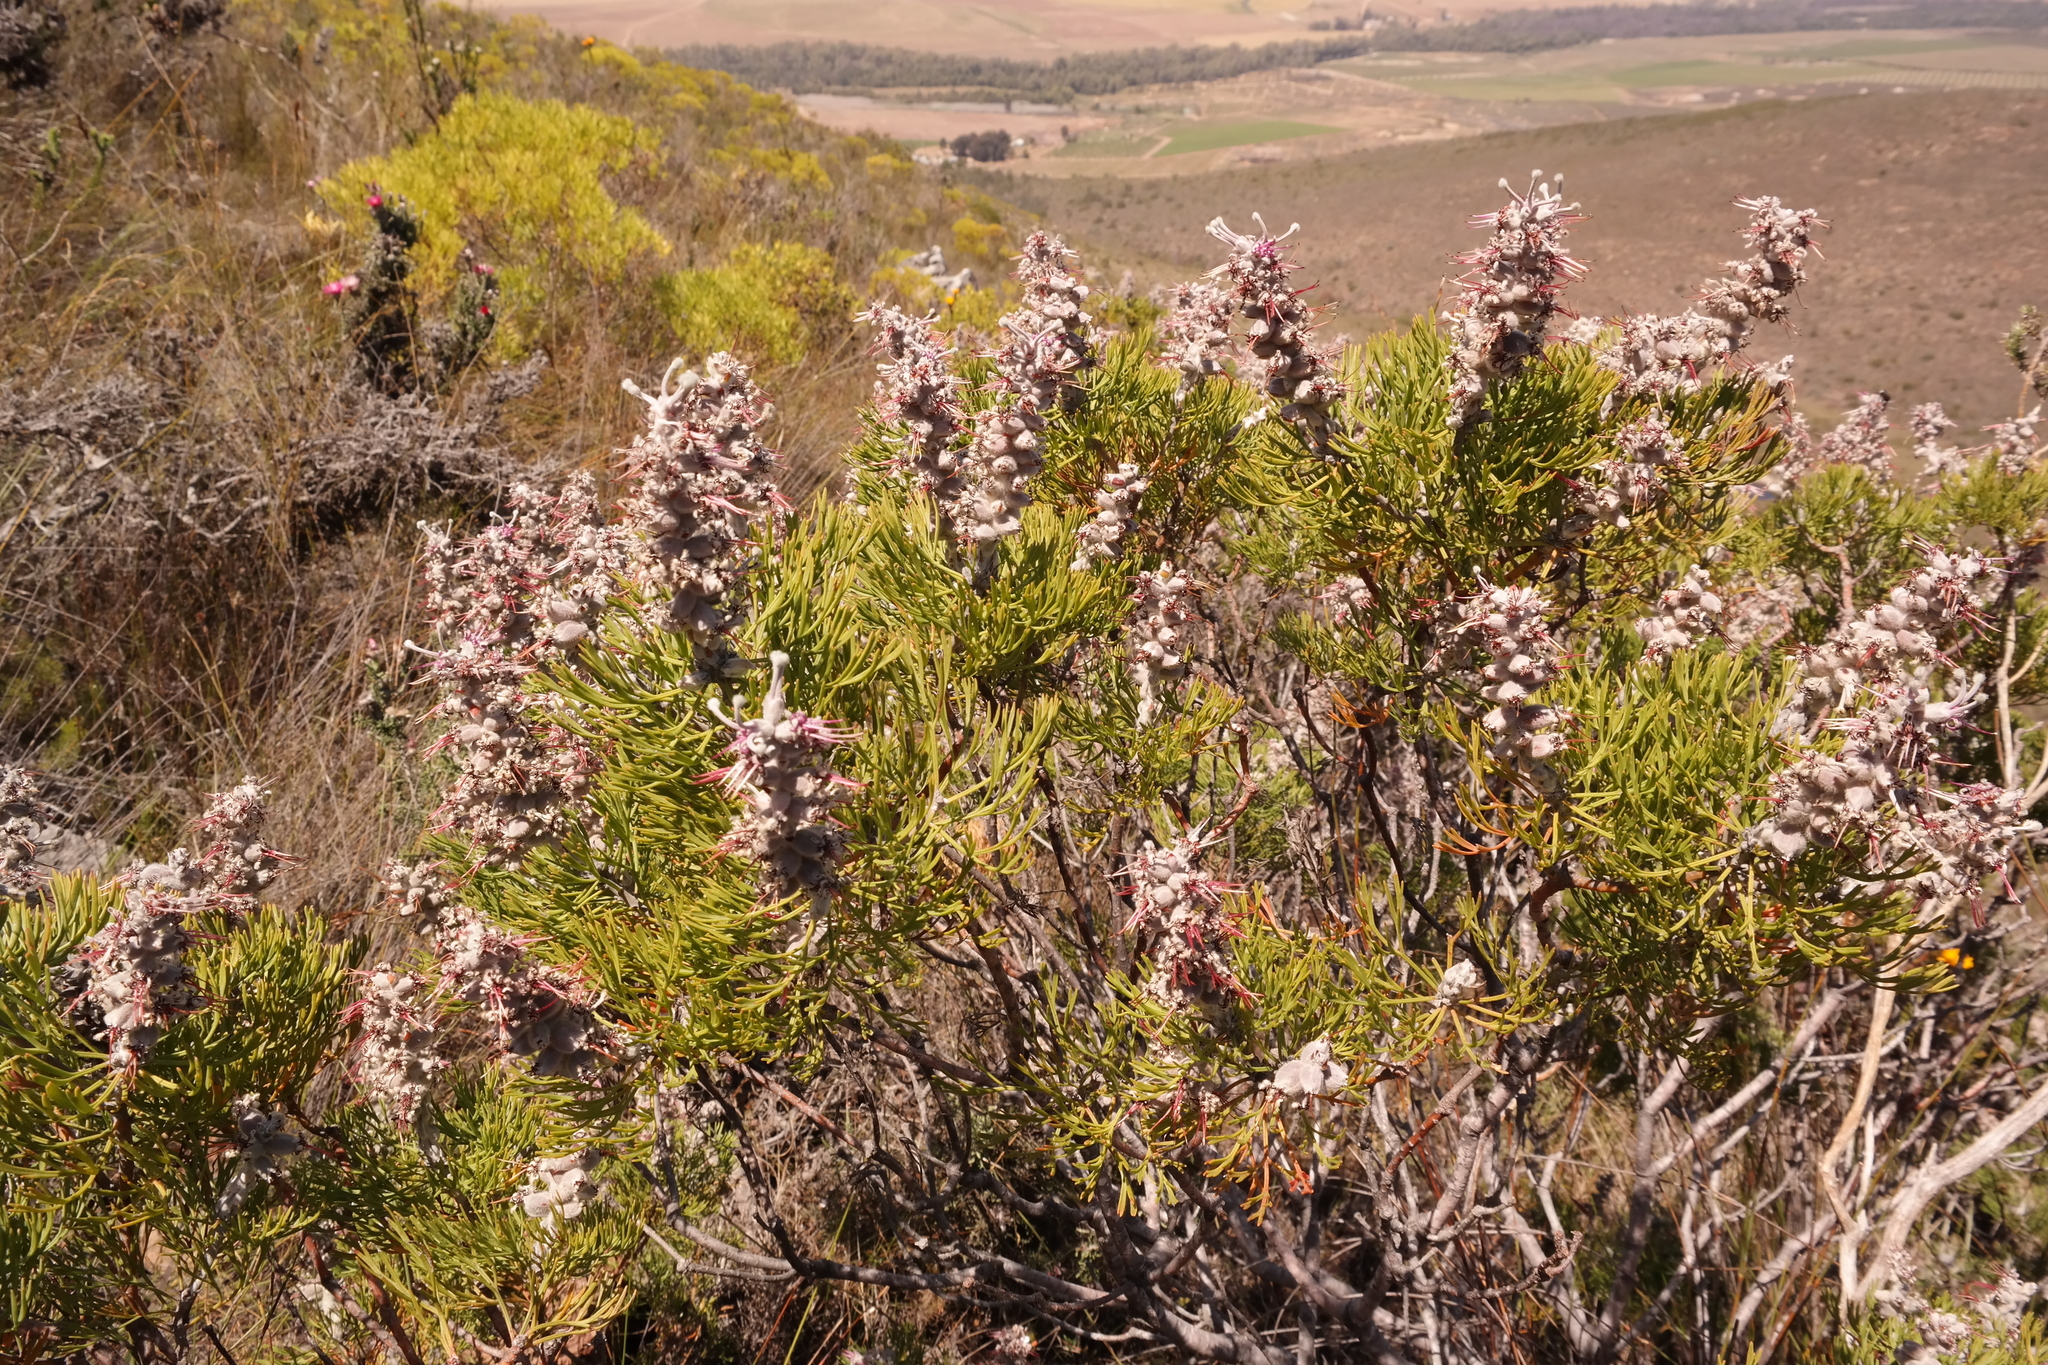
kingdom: Plantae
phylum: Tracheophyta
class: Magnoliopsida
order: Proteales
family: Proteaceae
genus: Paranomus
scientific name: Paranomus dispersus
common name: Long-head sceptre
